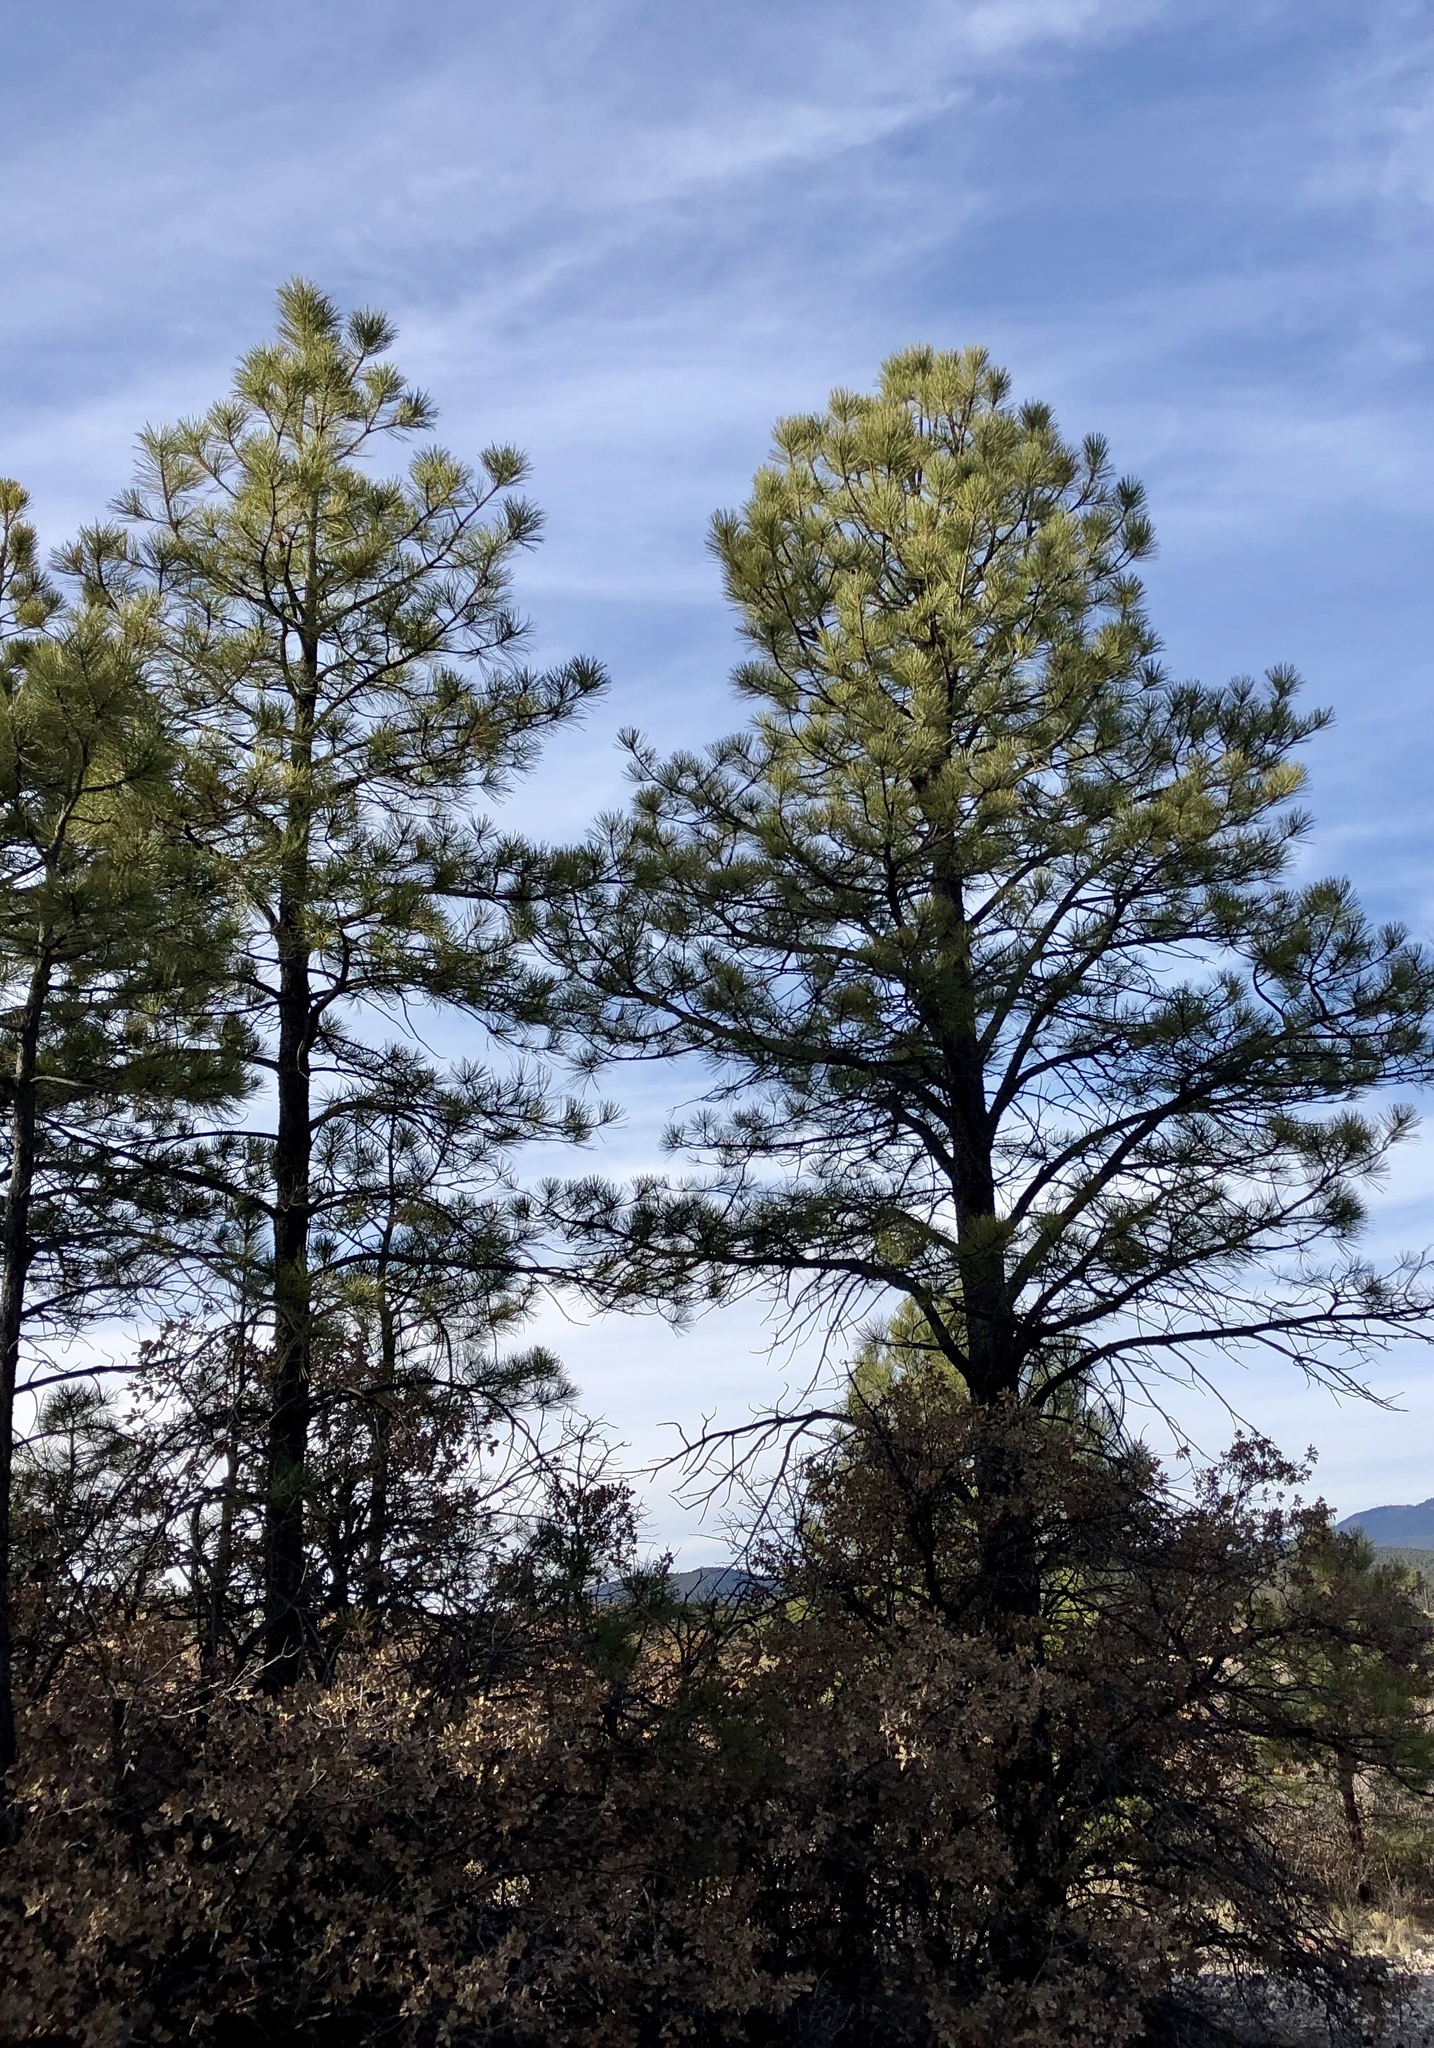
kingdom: Plantae
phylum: Tracheophyta
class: Pinopsida
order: Pinales
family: Pinaceae
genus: Pinus
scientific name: Pinus ponderosa
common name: Western yellow-pine
